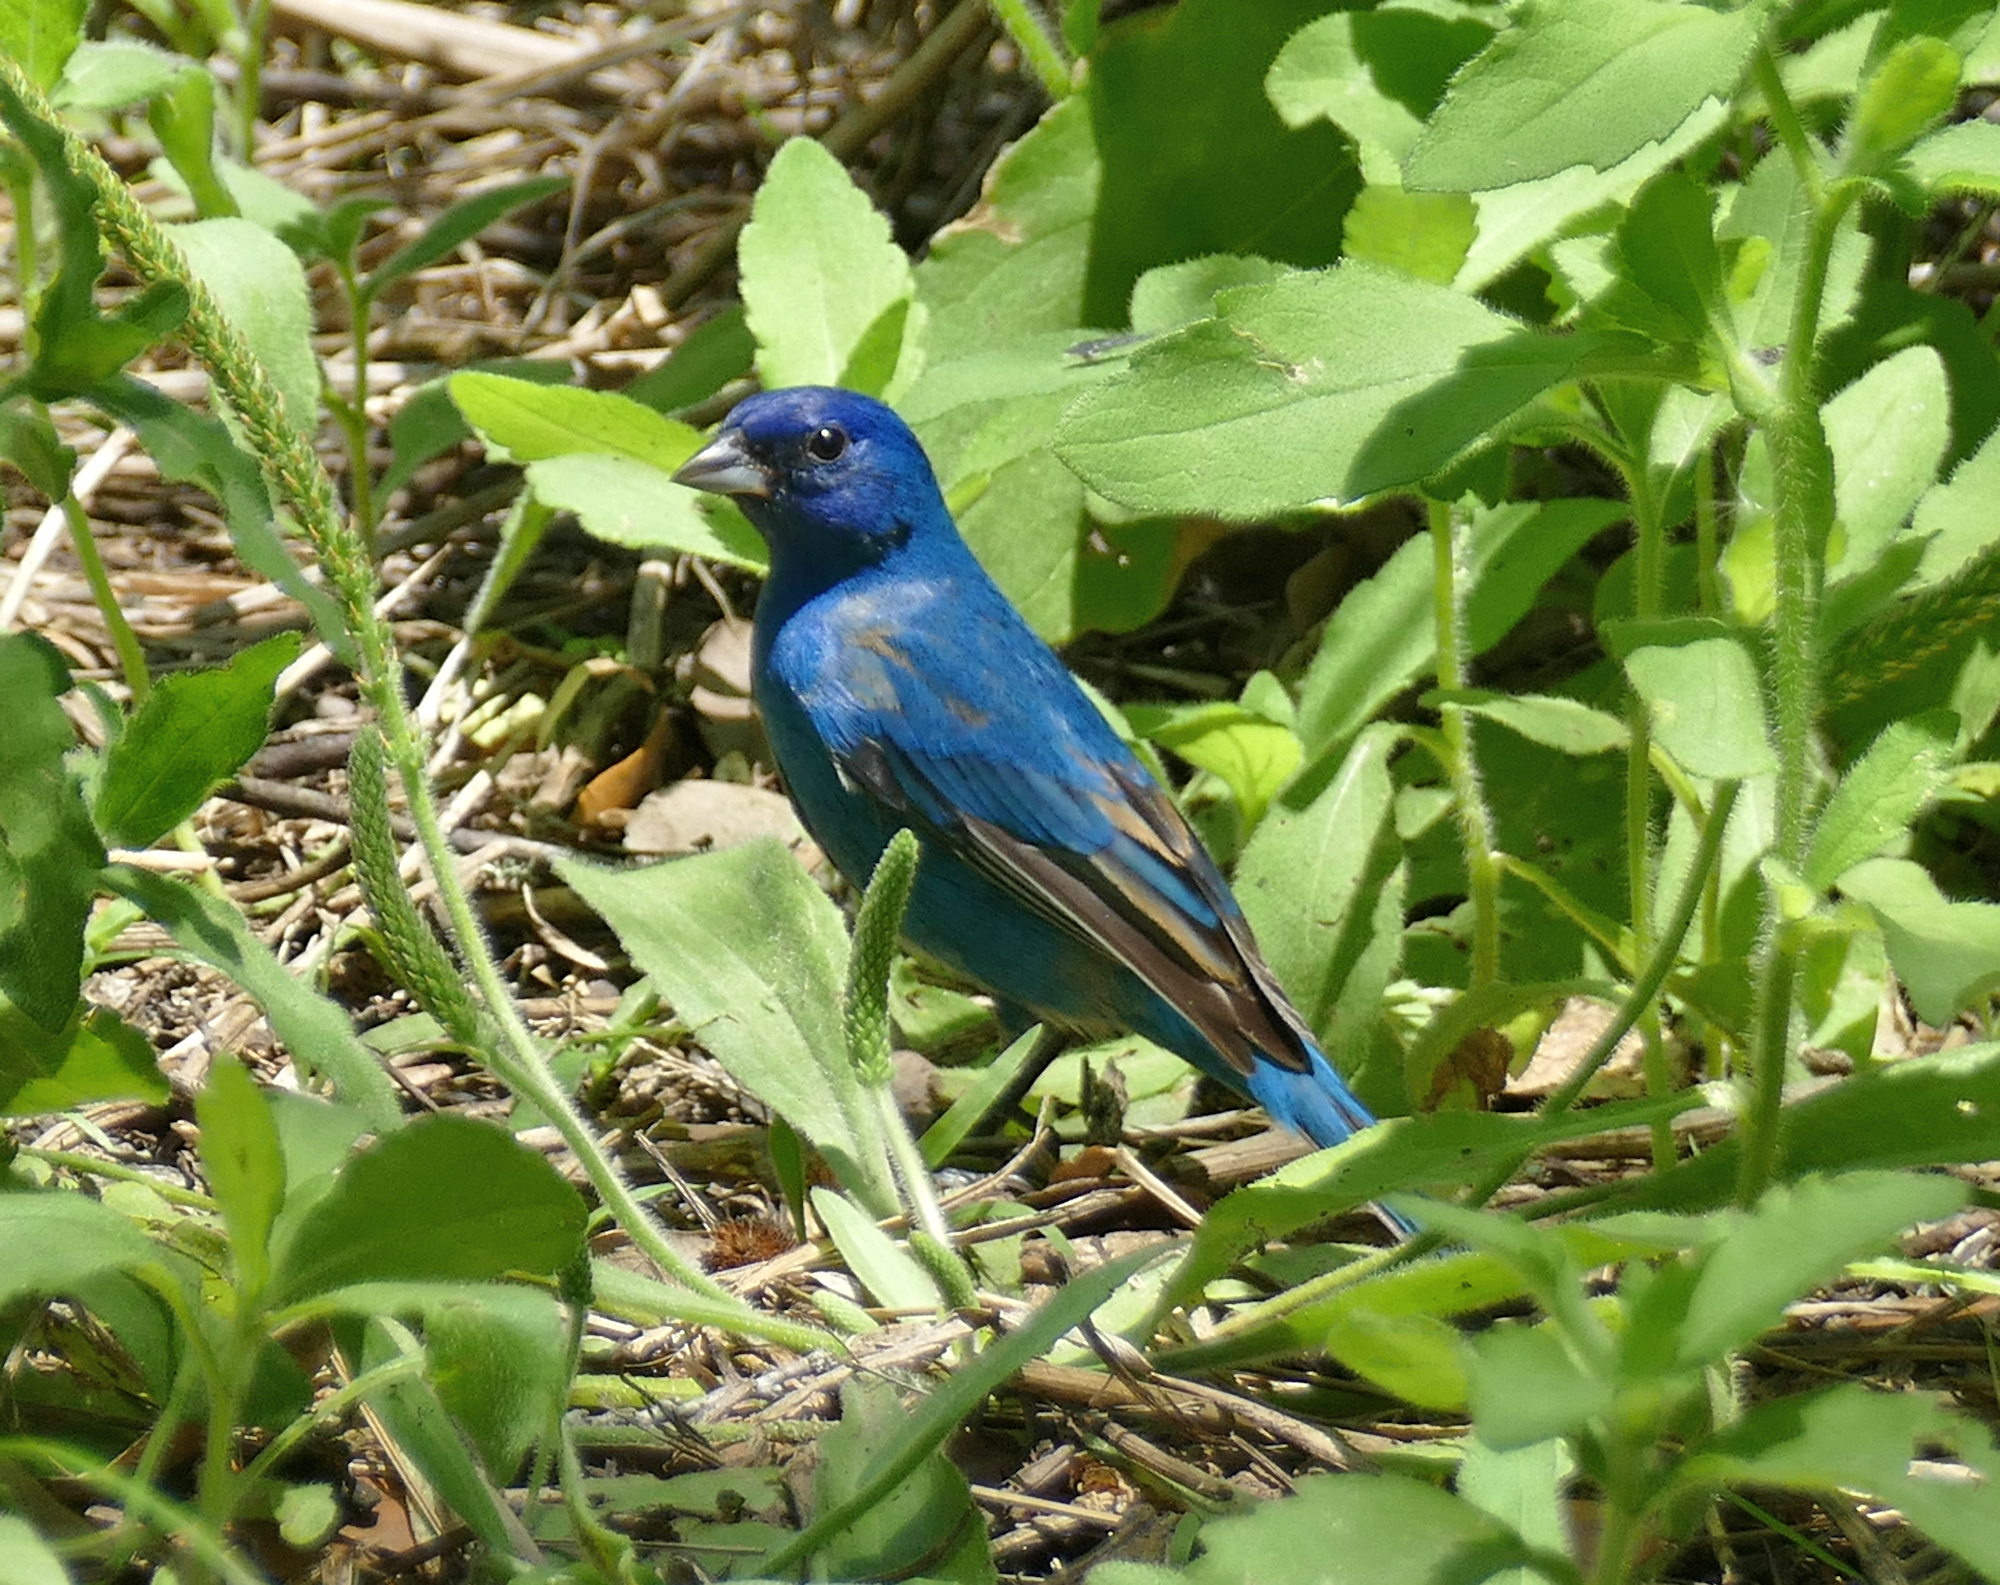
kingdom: Animalia
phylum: Chordata
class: Aves
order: Passeriformes
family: Cardinalidae
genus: Passerina
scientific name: Passerina cyanea
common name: Indigo bunting
